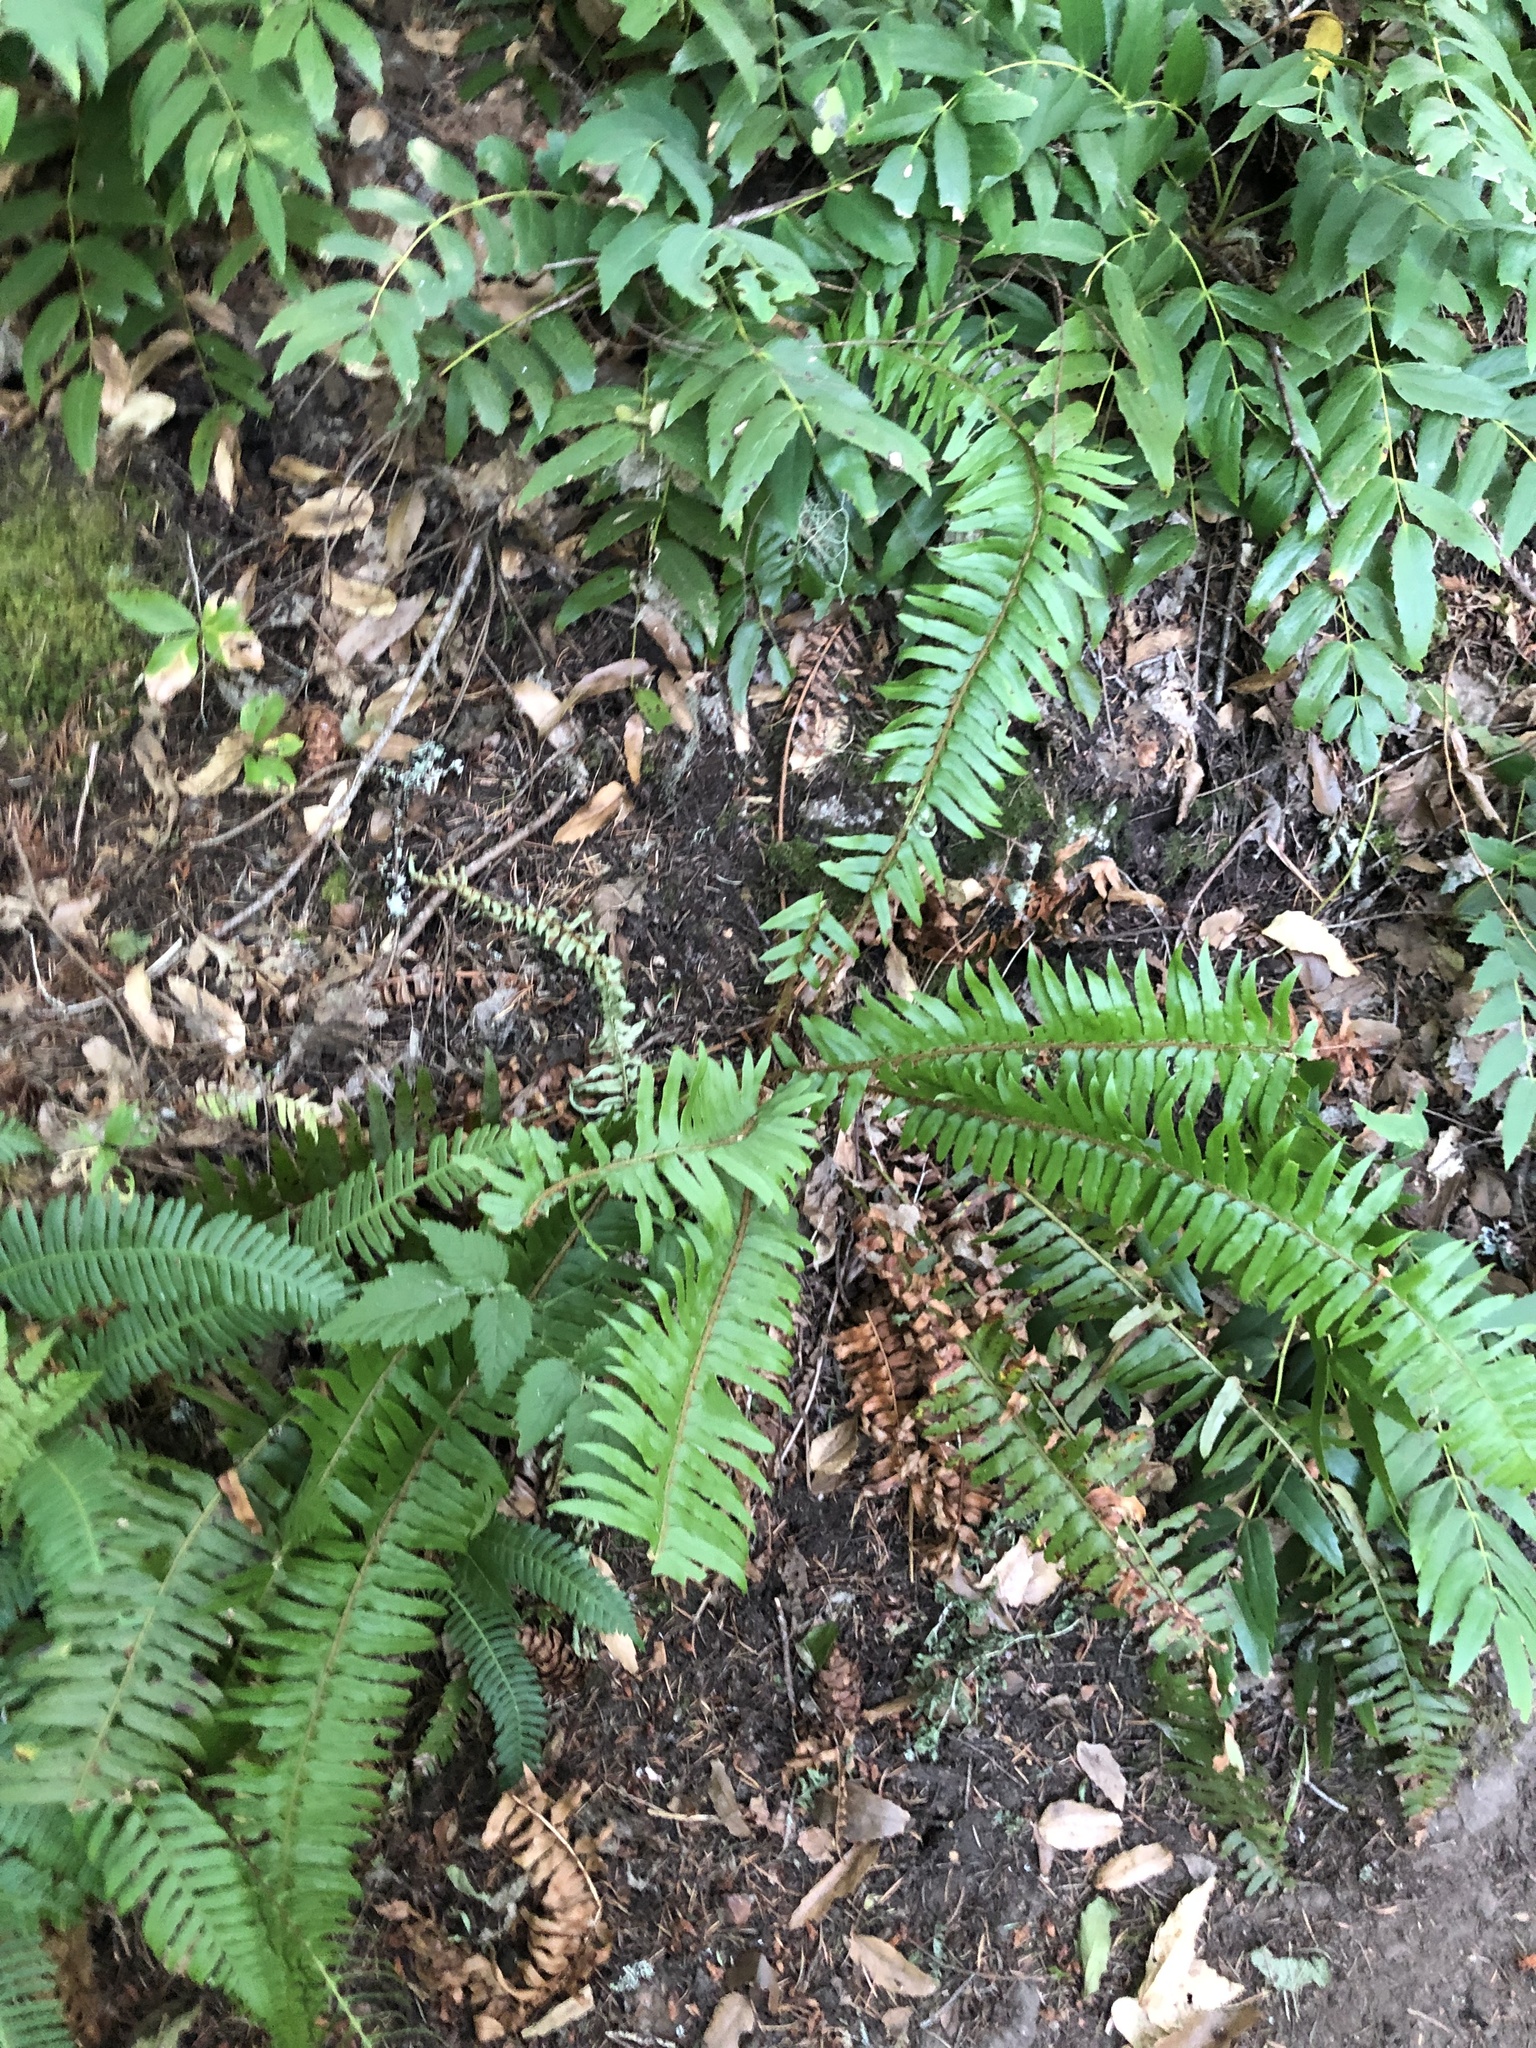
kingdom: Plantae
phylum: Tracheophyta
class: Polypodiopsida
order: Polypodiales
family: Dryopteridaceae
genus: Polystichum
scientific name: Polystichum munitum
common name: Western sword-fern
